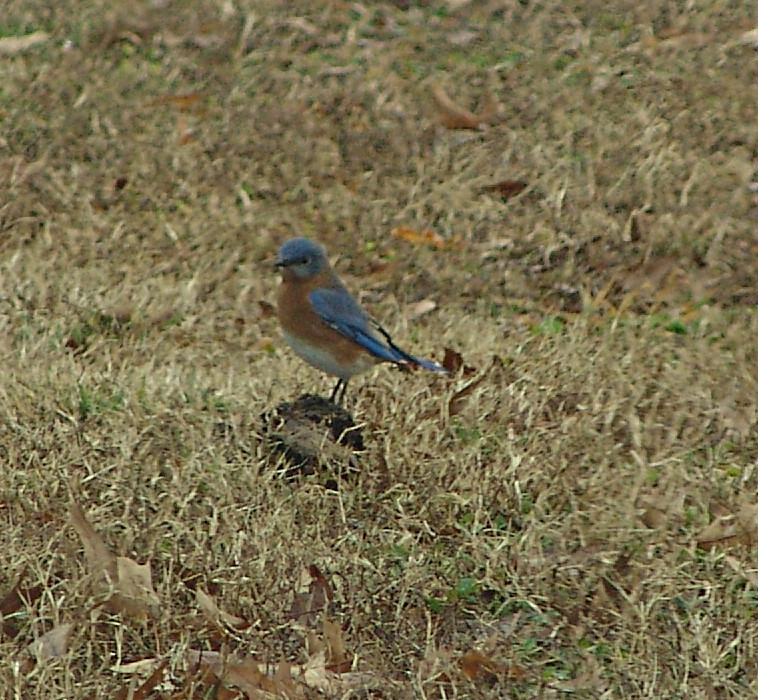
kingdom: Animalia
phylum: Chordata
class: Aves
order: Passeriformes
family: Turdidae
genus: Sialia
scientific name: Sialia sialis
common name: Eastern bluebird
